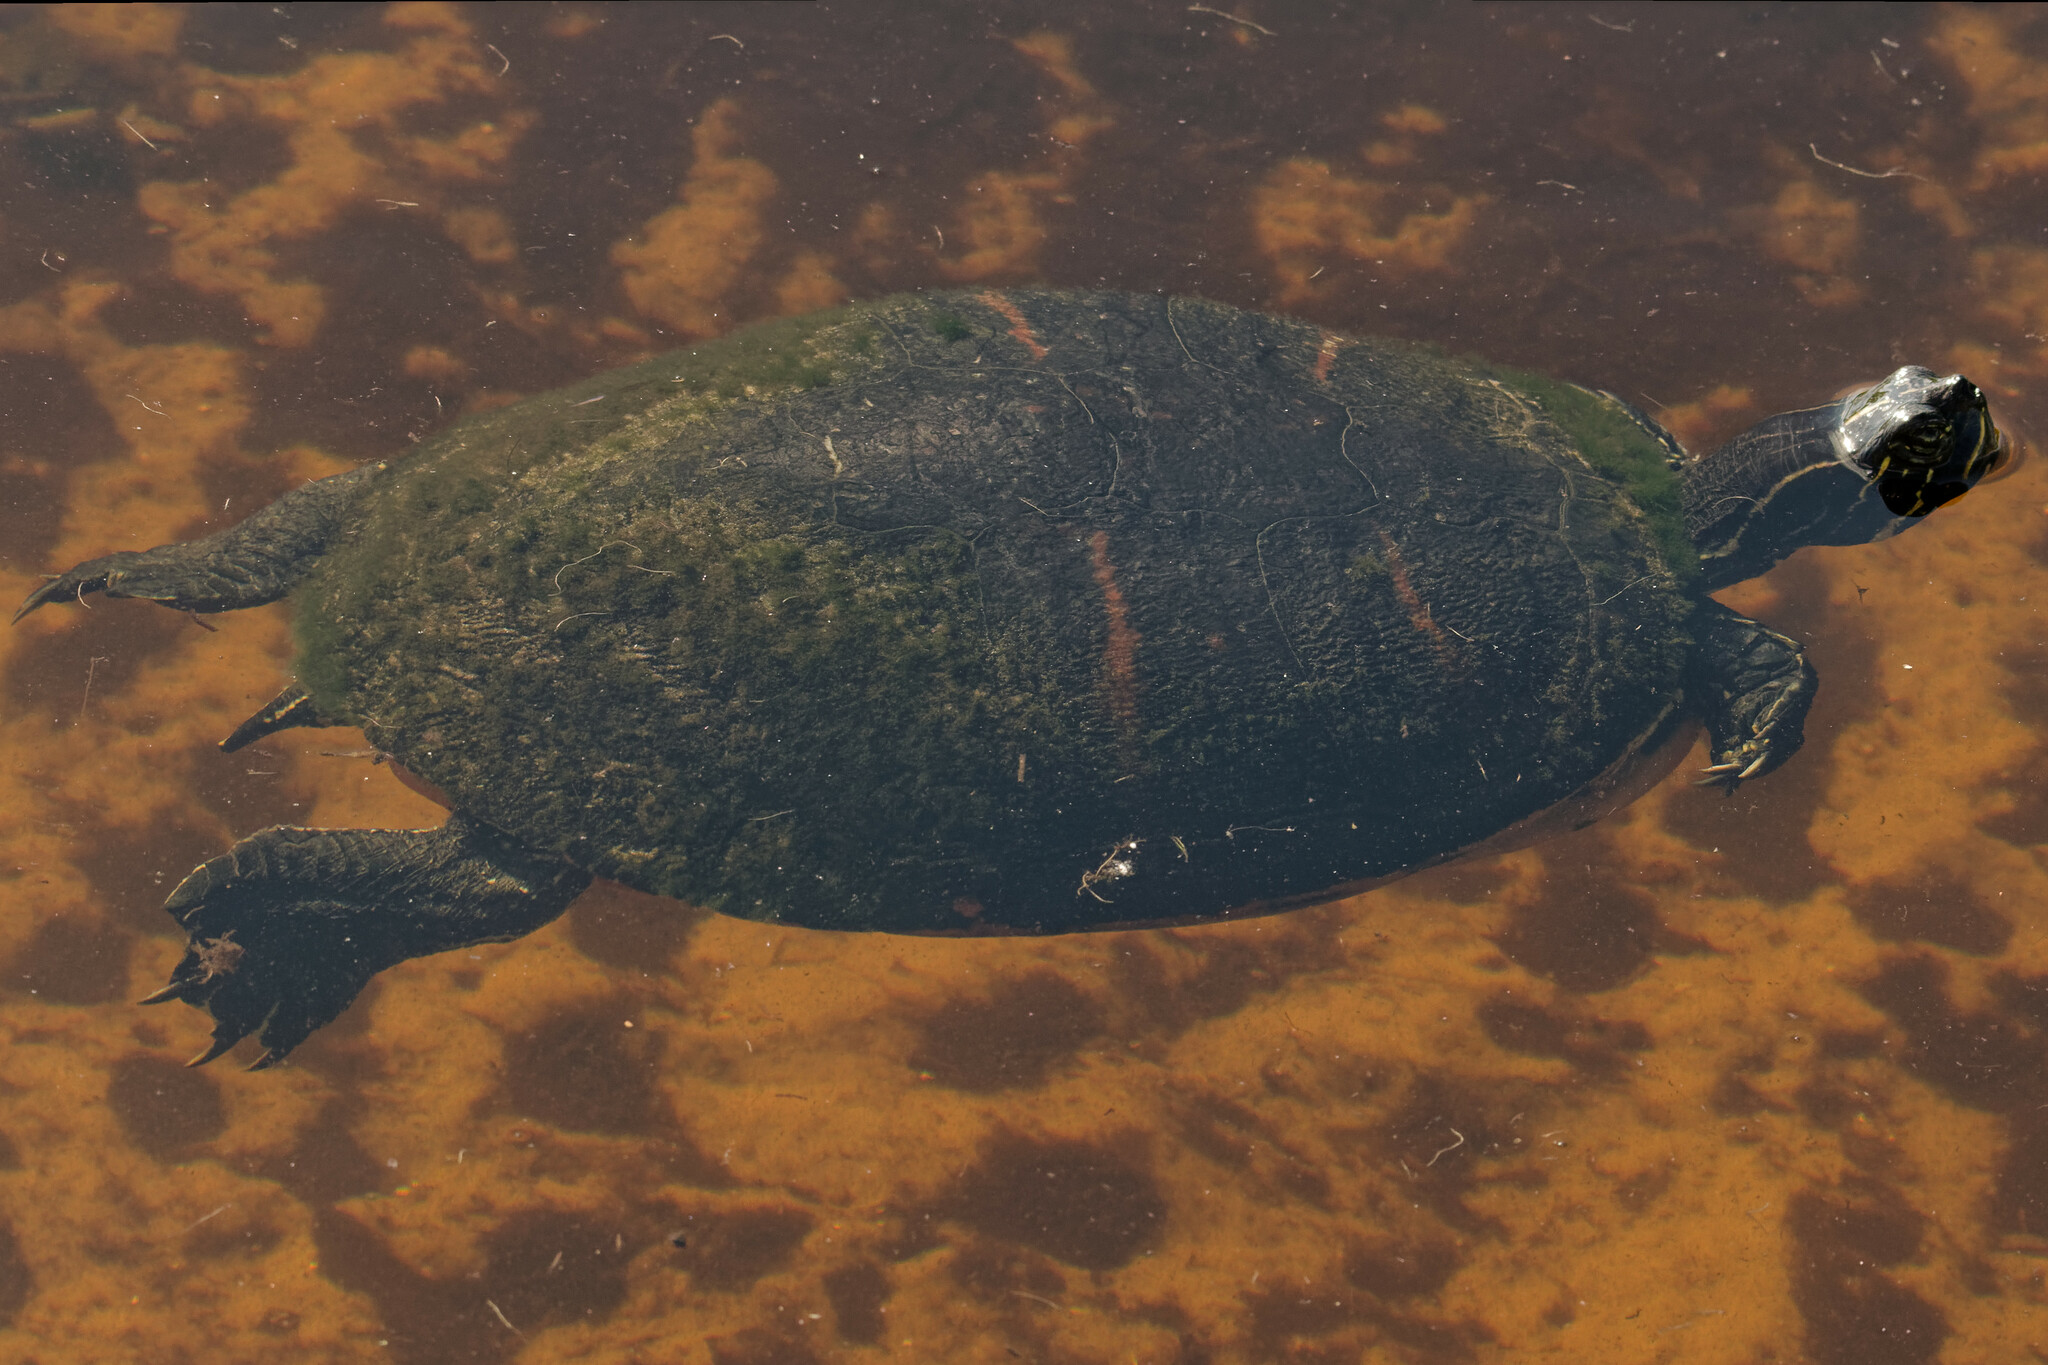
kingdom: Animalia
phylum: Chordata
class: Testudines
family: Emydidae
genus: Pseudemys
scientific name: Pseudemys nelsoni
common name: Florida red-bellied turtle
